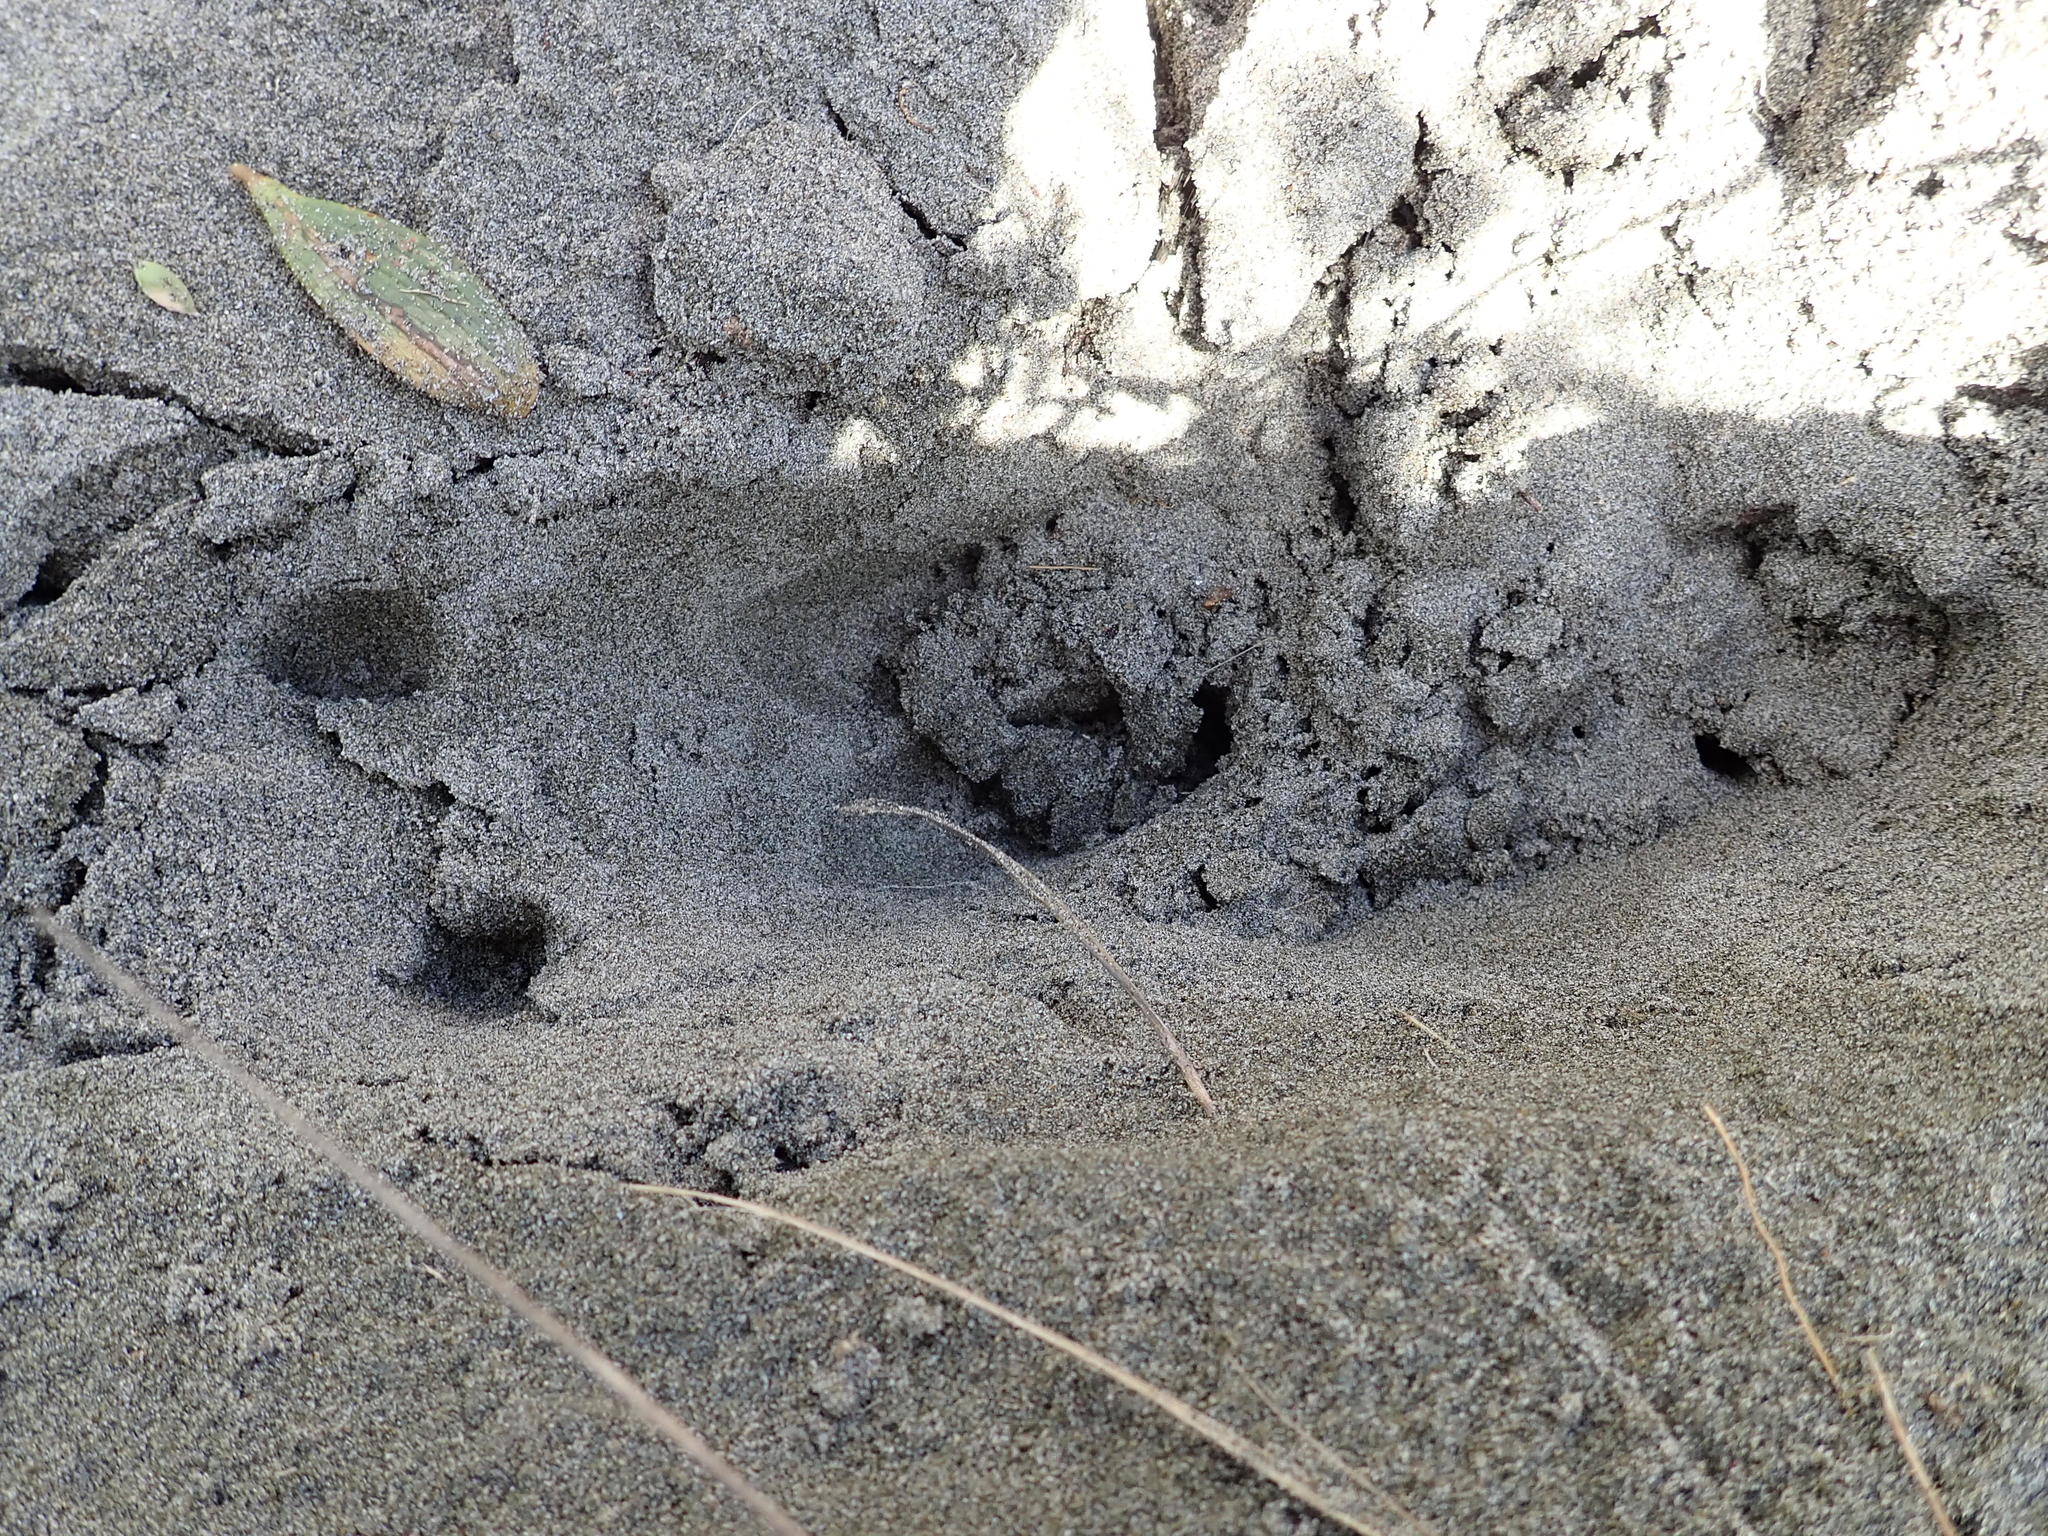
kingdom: Animalia
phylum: Chordata
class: Mammalia
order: Artiodactyla
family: Cervidae
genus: Rusa
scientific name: Rusa unicolor
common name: Sambar
